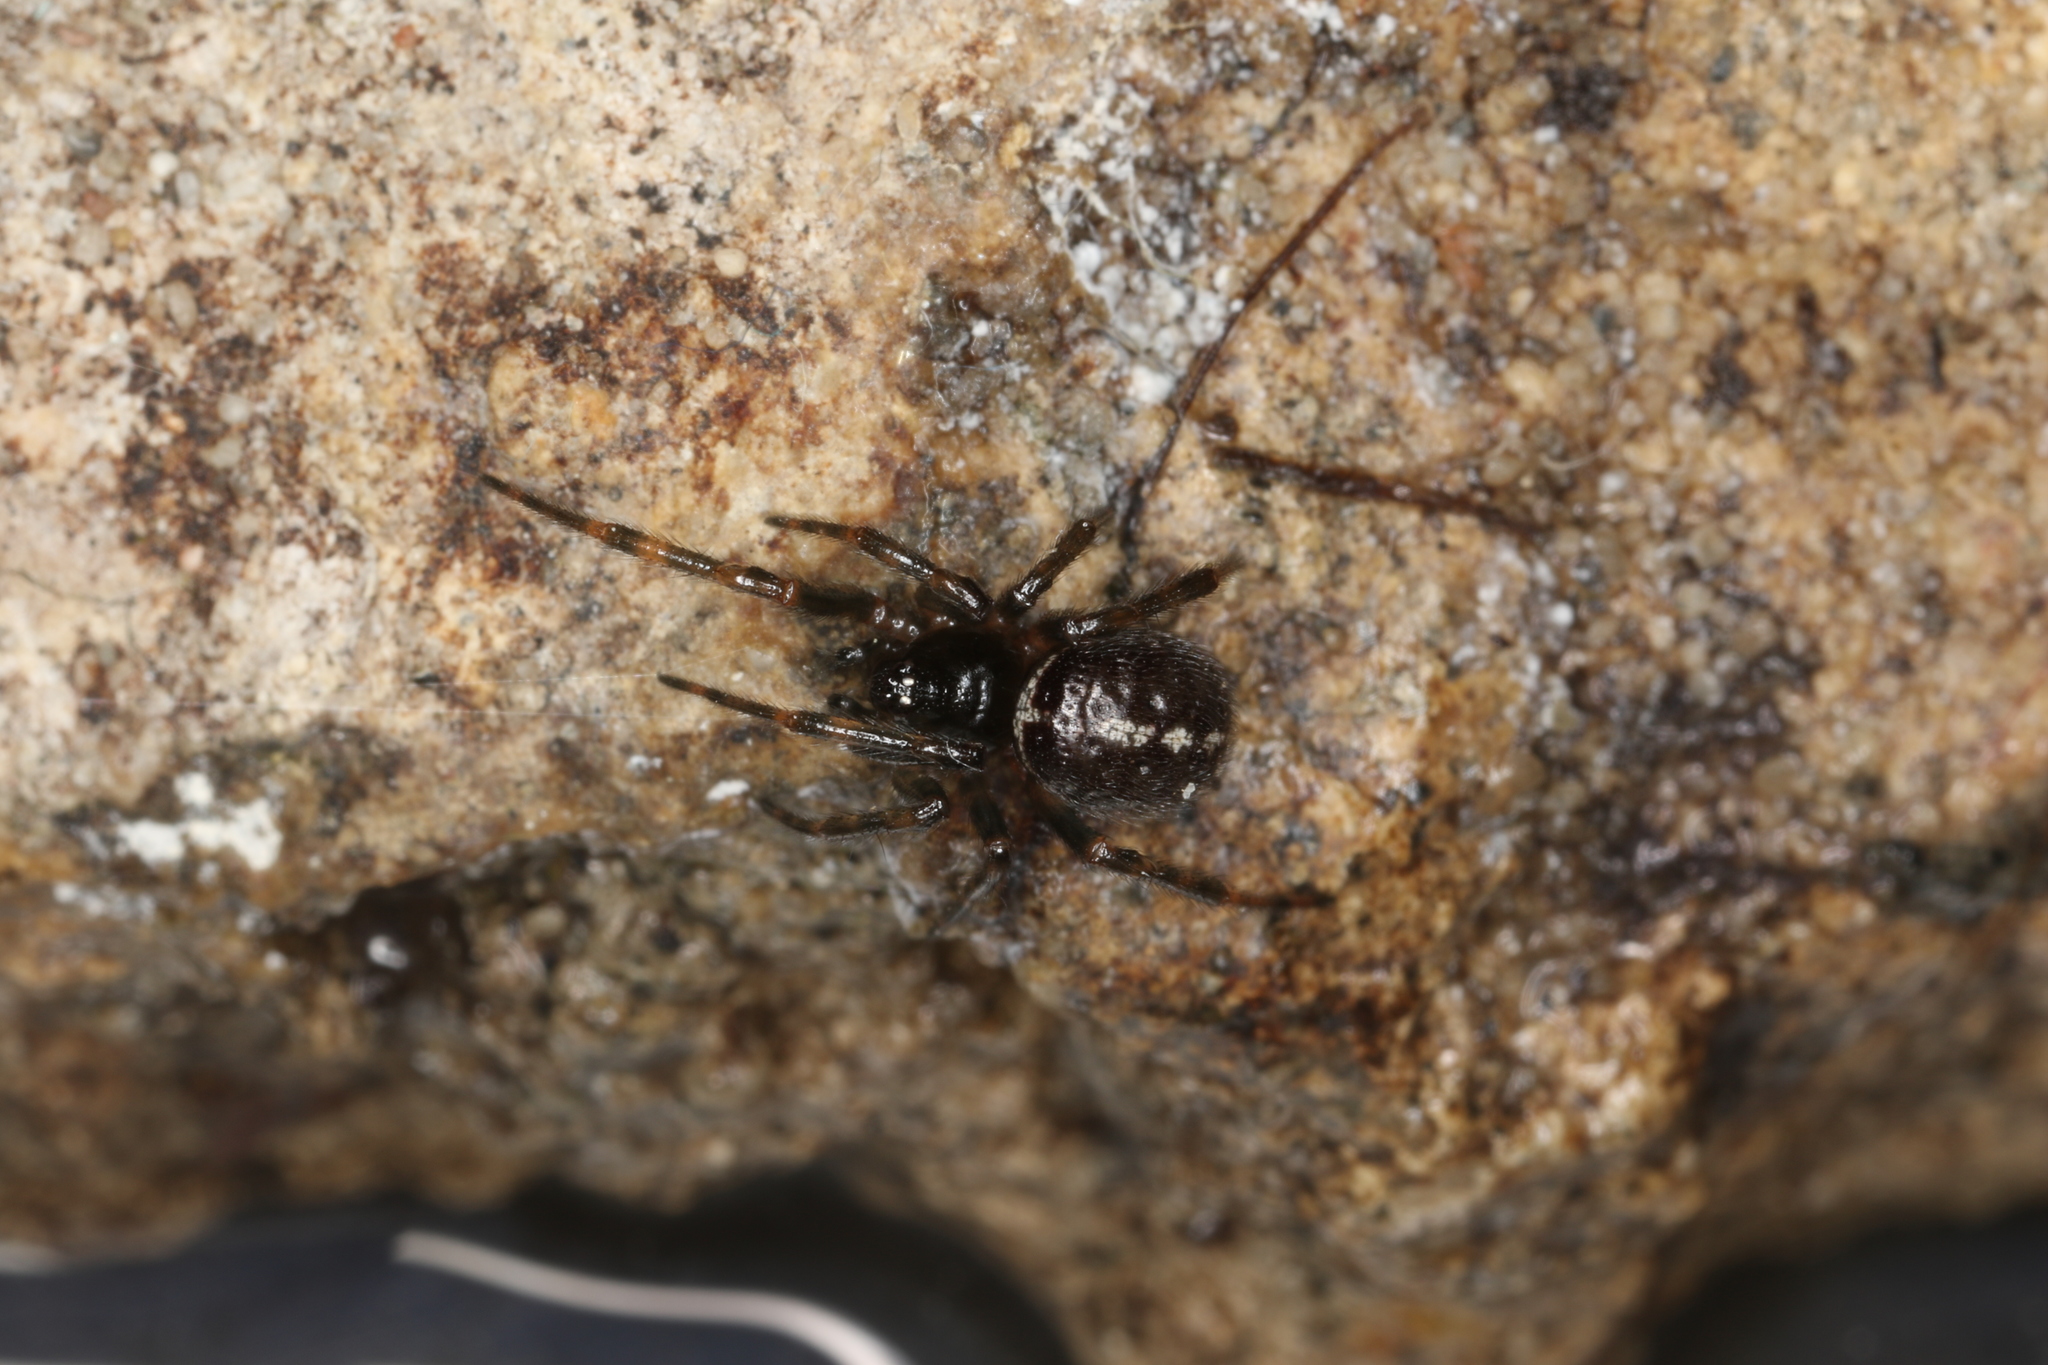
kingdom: Animalia
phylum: Arthropoda
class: Arachnida
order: Araneae
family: Theridiidae
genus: Steatoda
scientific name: Steatoda bipunctata
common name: False widow
